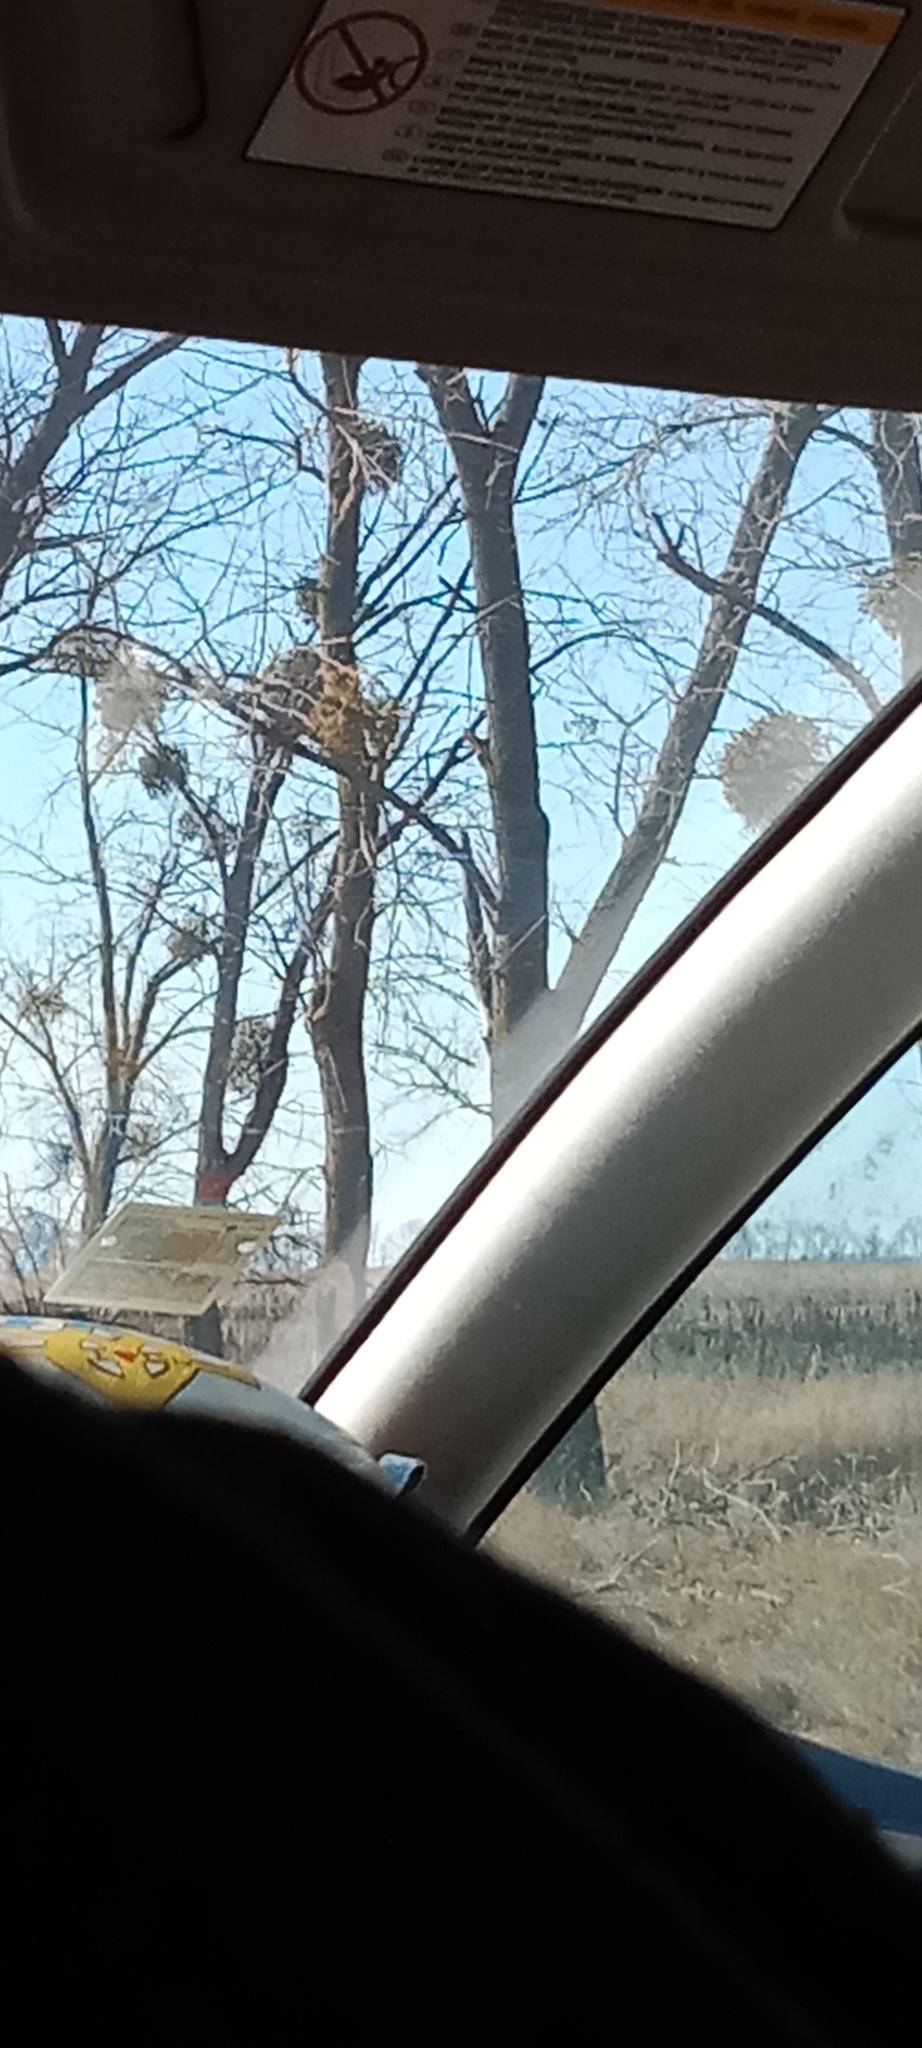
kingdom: Plantae
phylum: Tracheophyta
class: Magnoliopsida
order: Santalales
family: Viscaceae
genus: Viscum
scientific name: Viscum album
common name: Mistletoe
